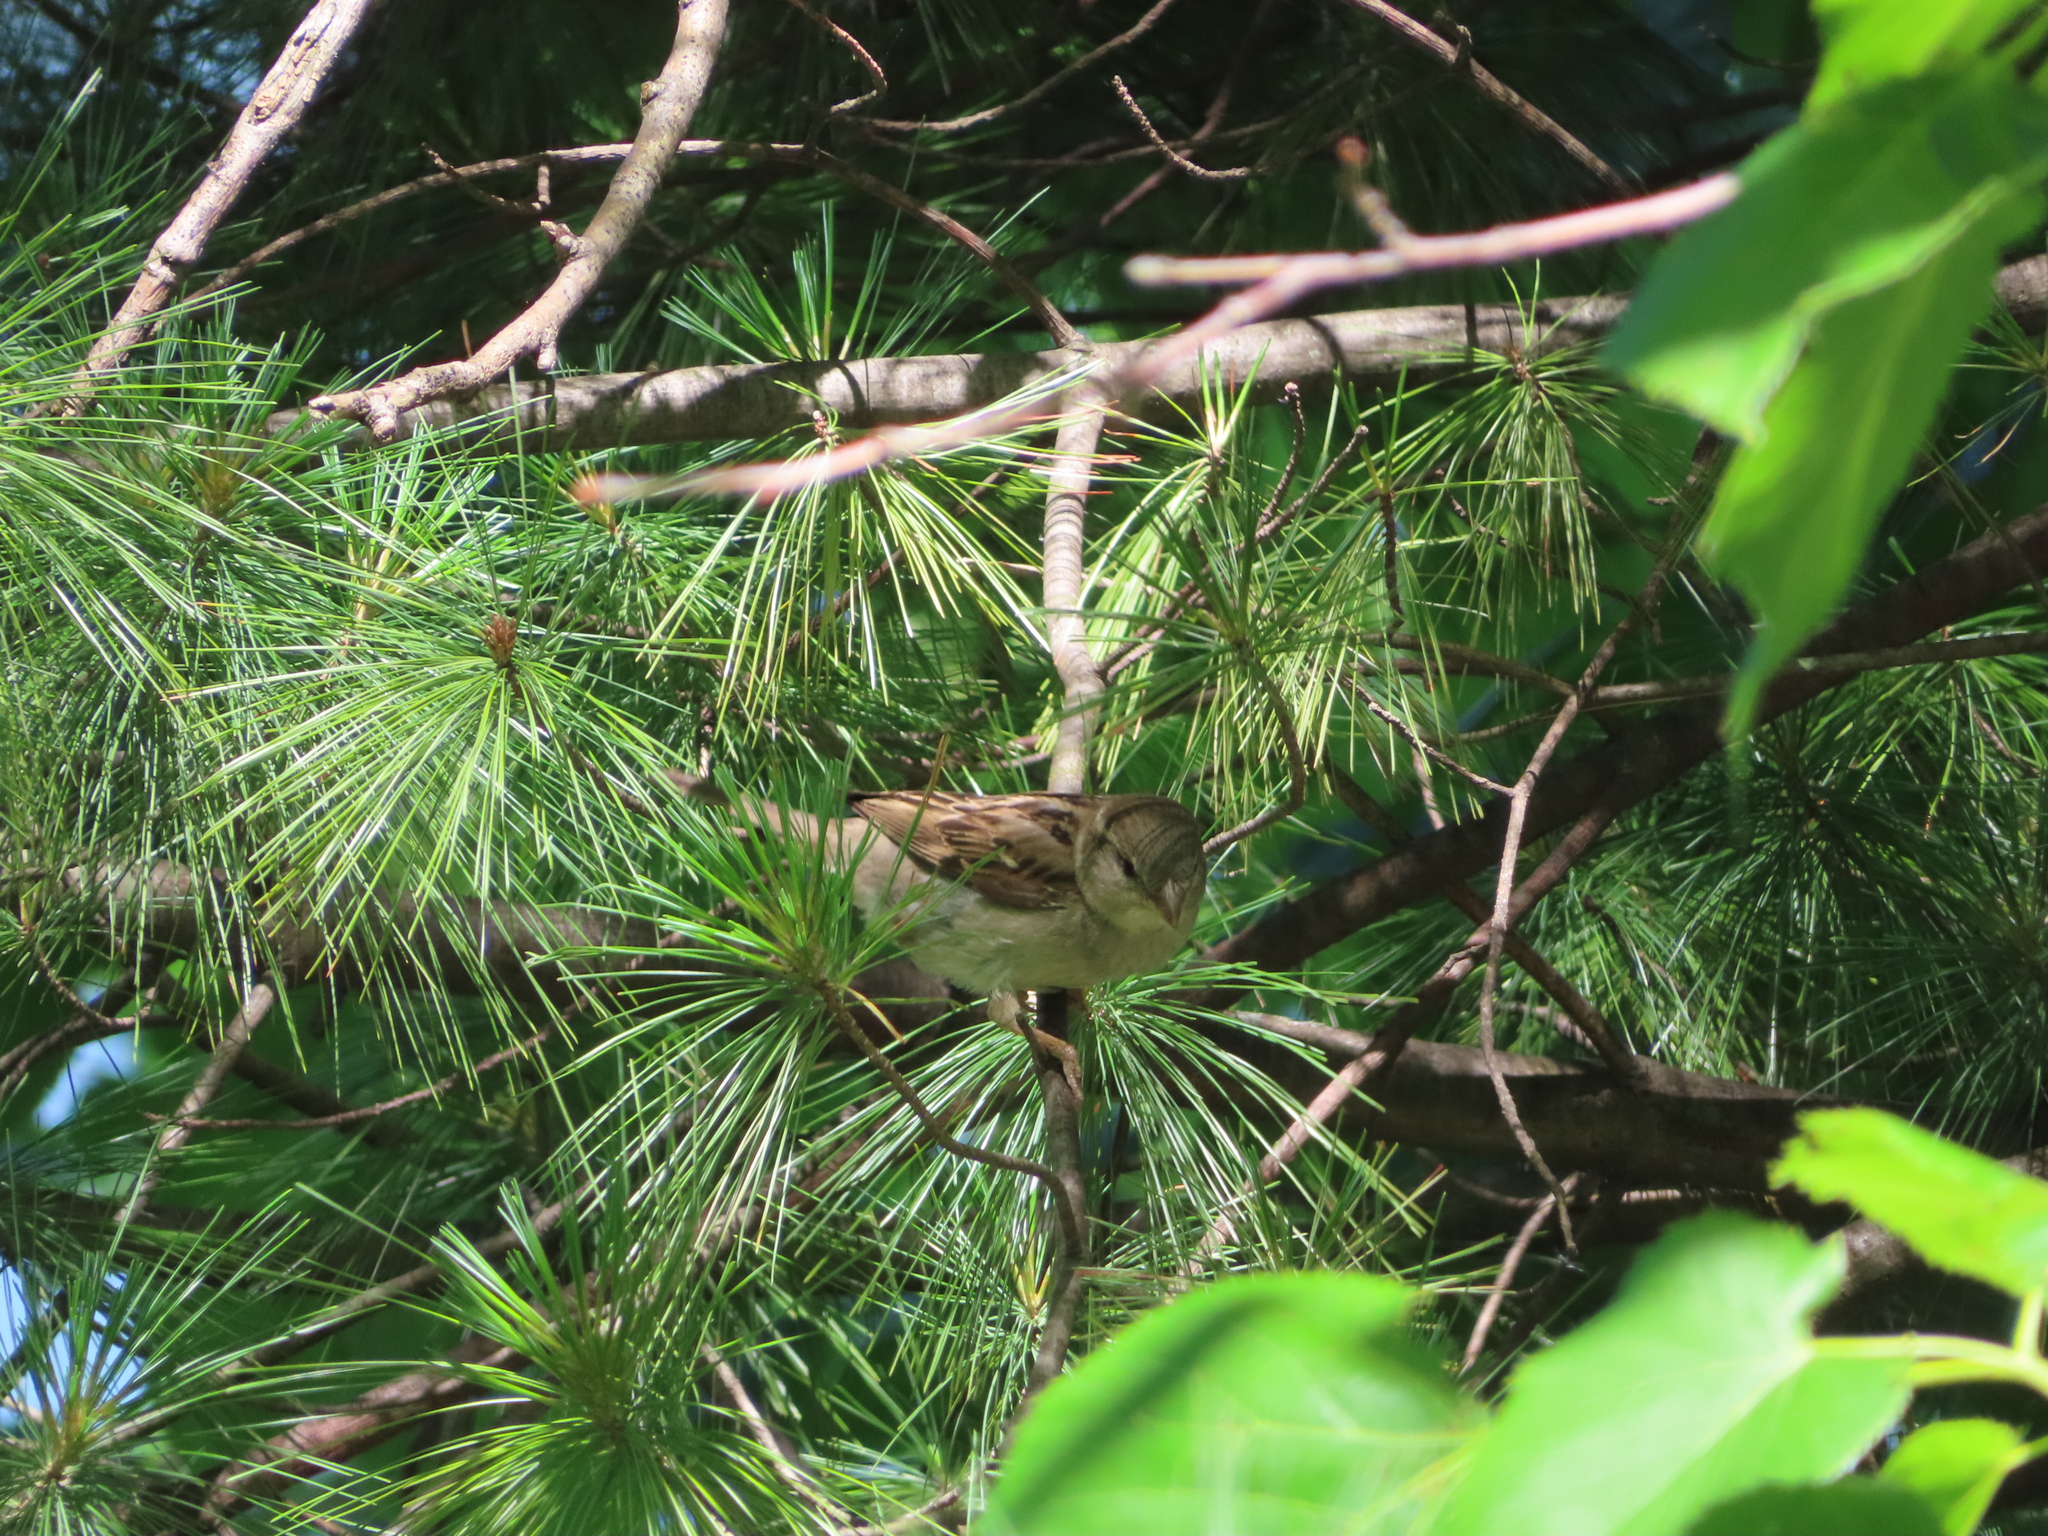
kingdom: Animalia
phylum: Chordata
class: Aves
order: Passeriformes
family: Passeridae
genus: Passer
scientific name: Passer domesticus
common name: House sparrow
